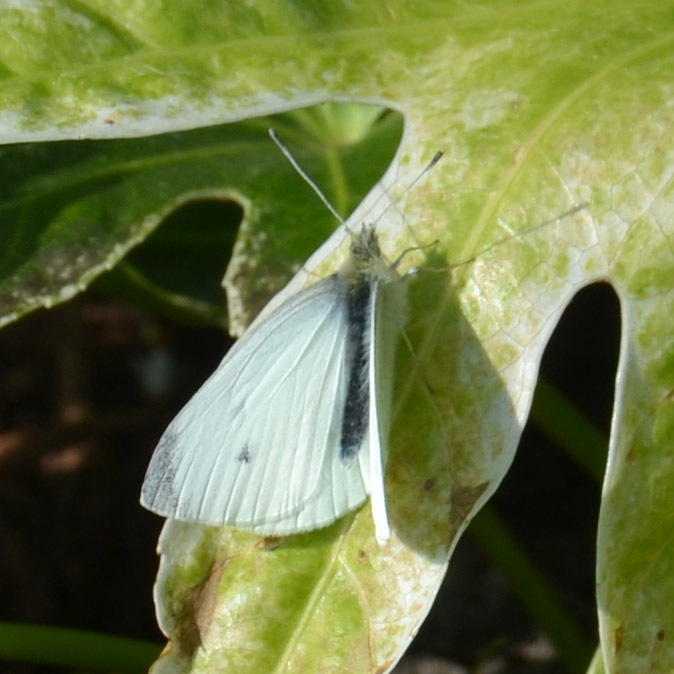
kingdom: Animalia
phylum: Arthropoda
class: Insecta
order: Lepidoptera
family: Pieridae
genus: Pieris
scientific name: Pieris rapae
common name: Small white
